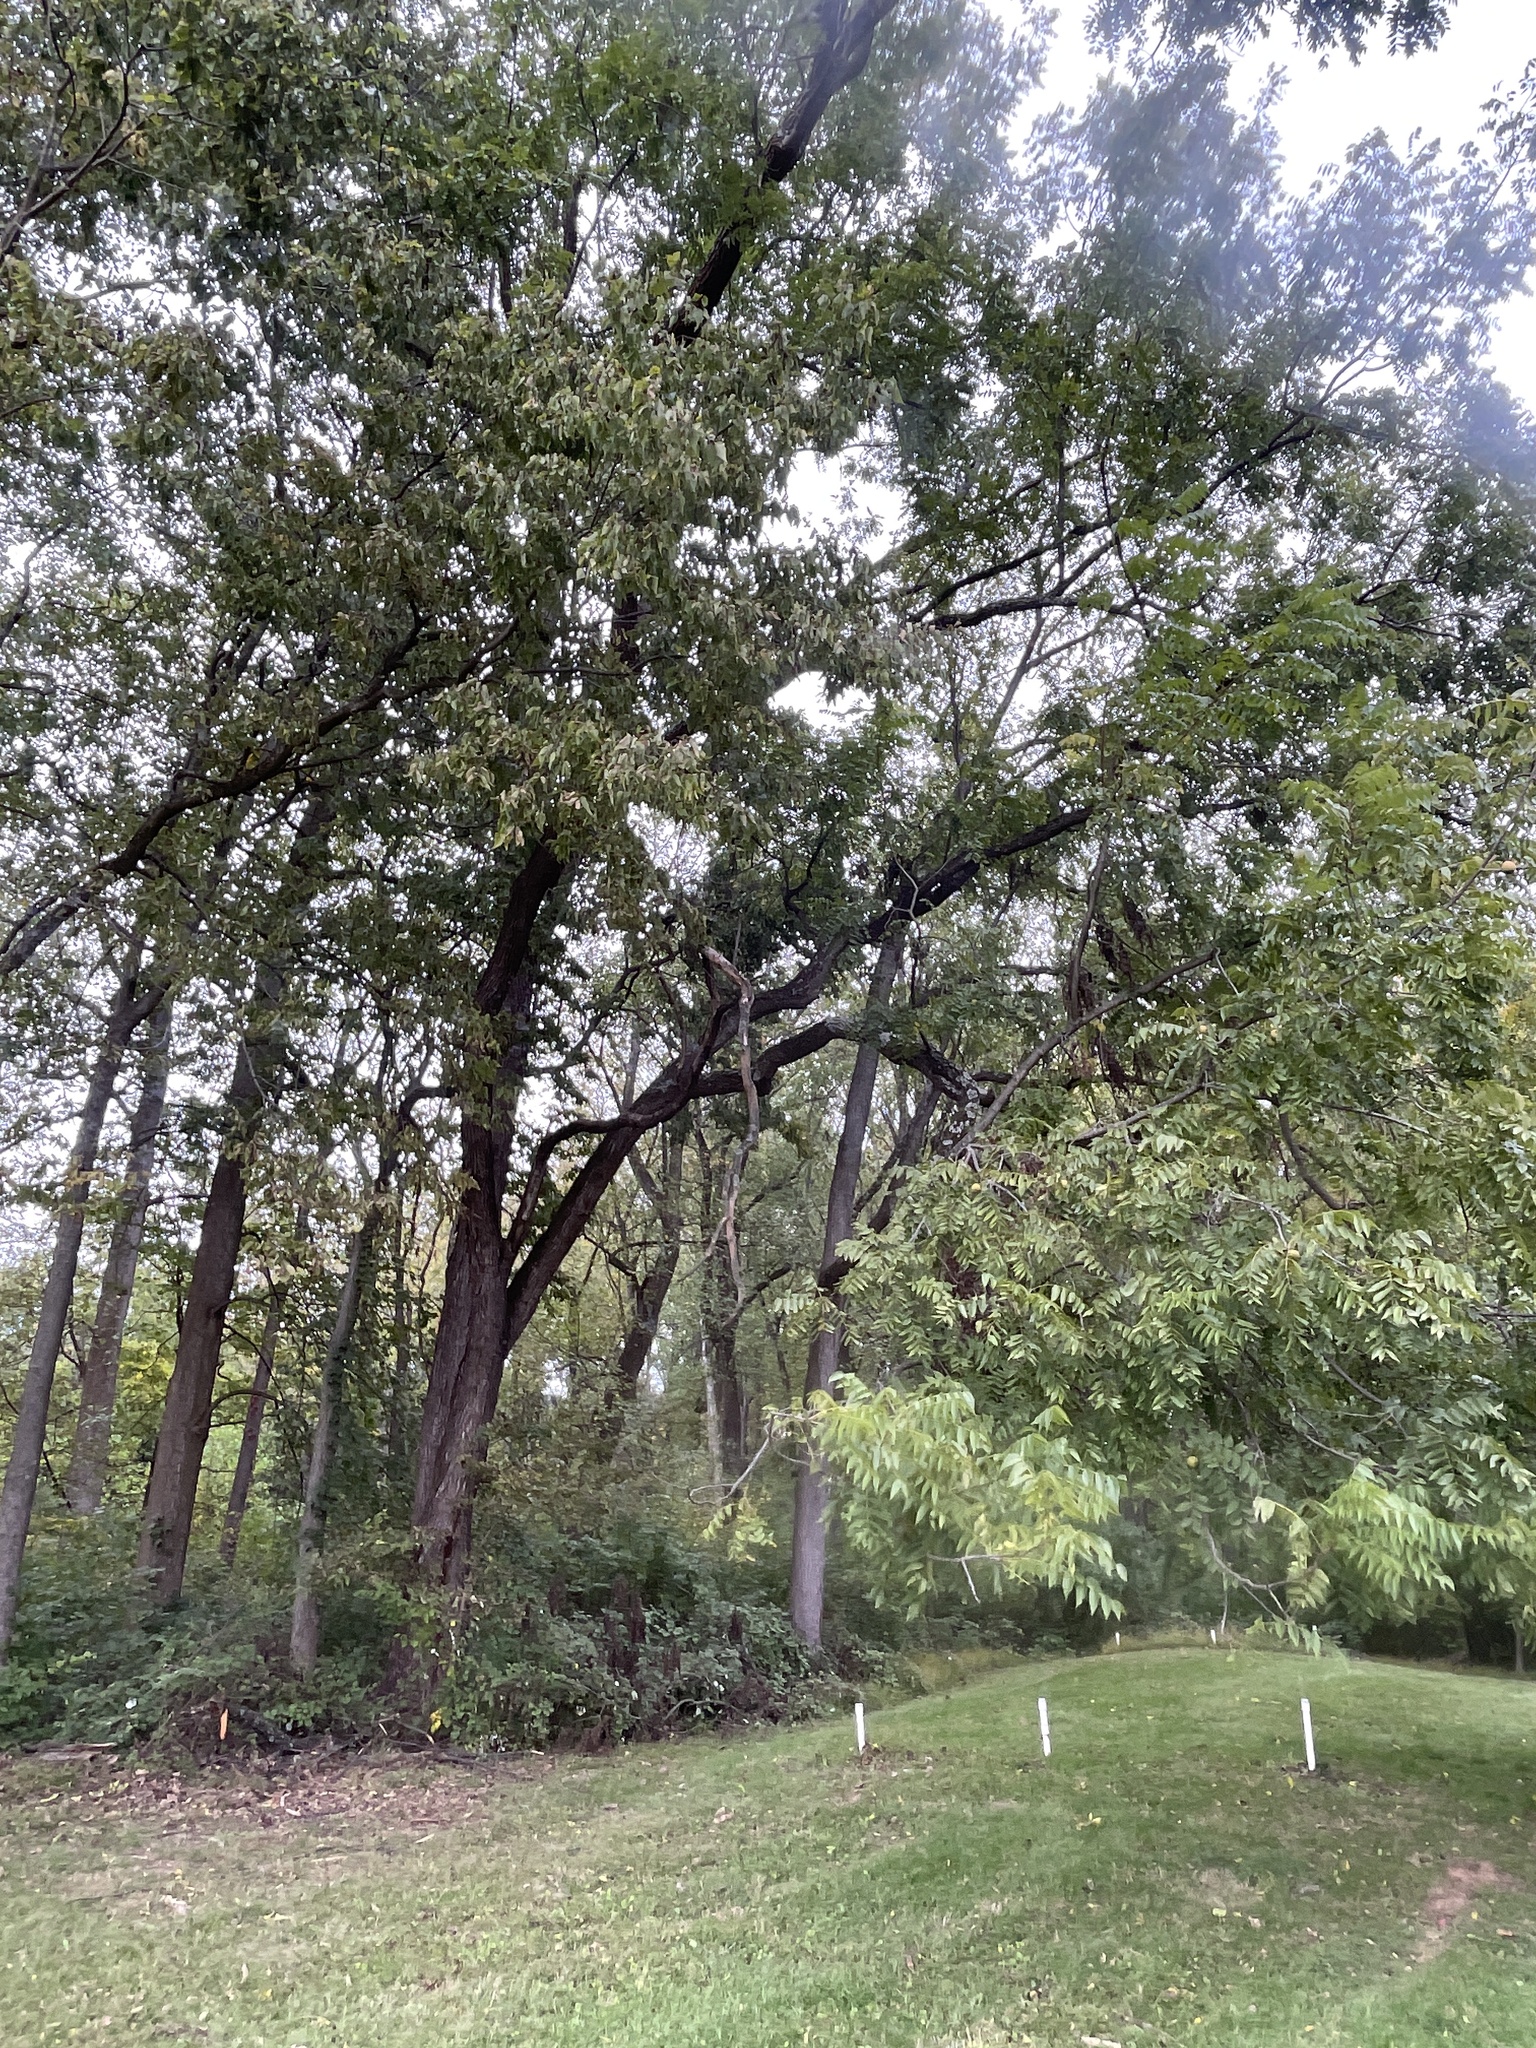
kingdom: Plantae
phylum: Tracheophyta
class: Magnoliopsida
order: Fagales
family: Juglandaceae
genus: Juglans
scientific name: Juglans nigra
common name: Black walnut
